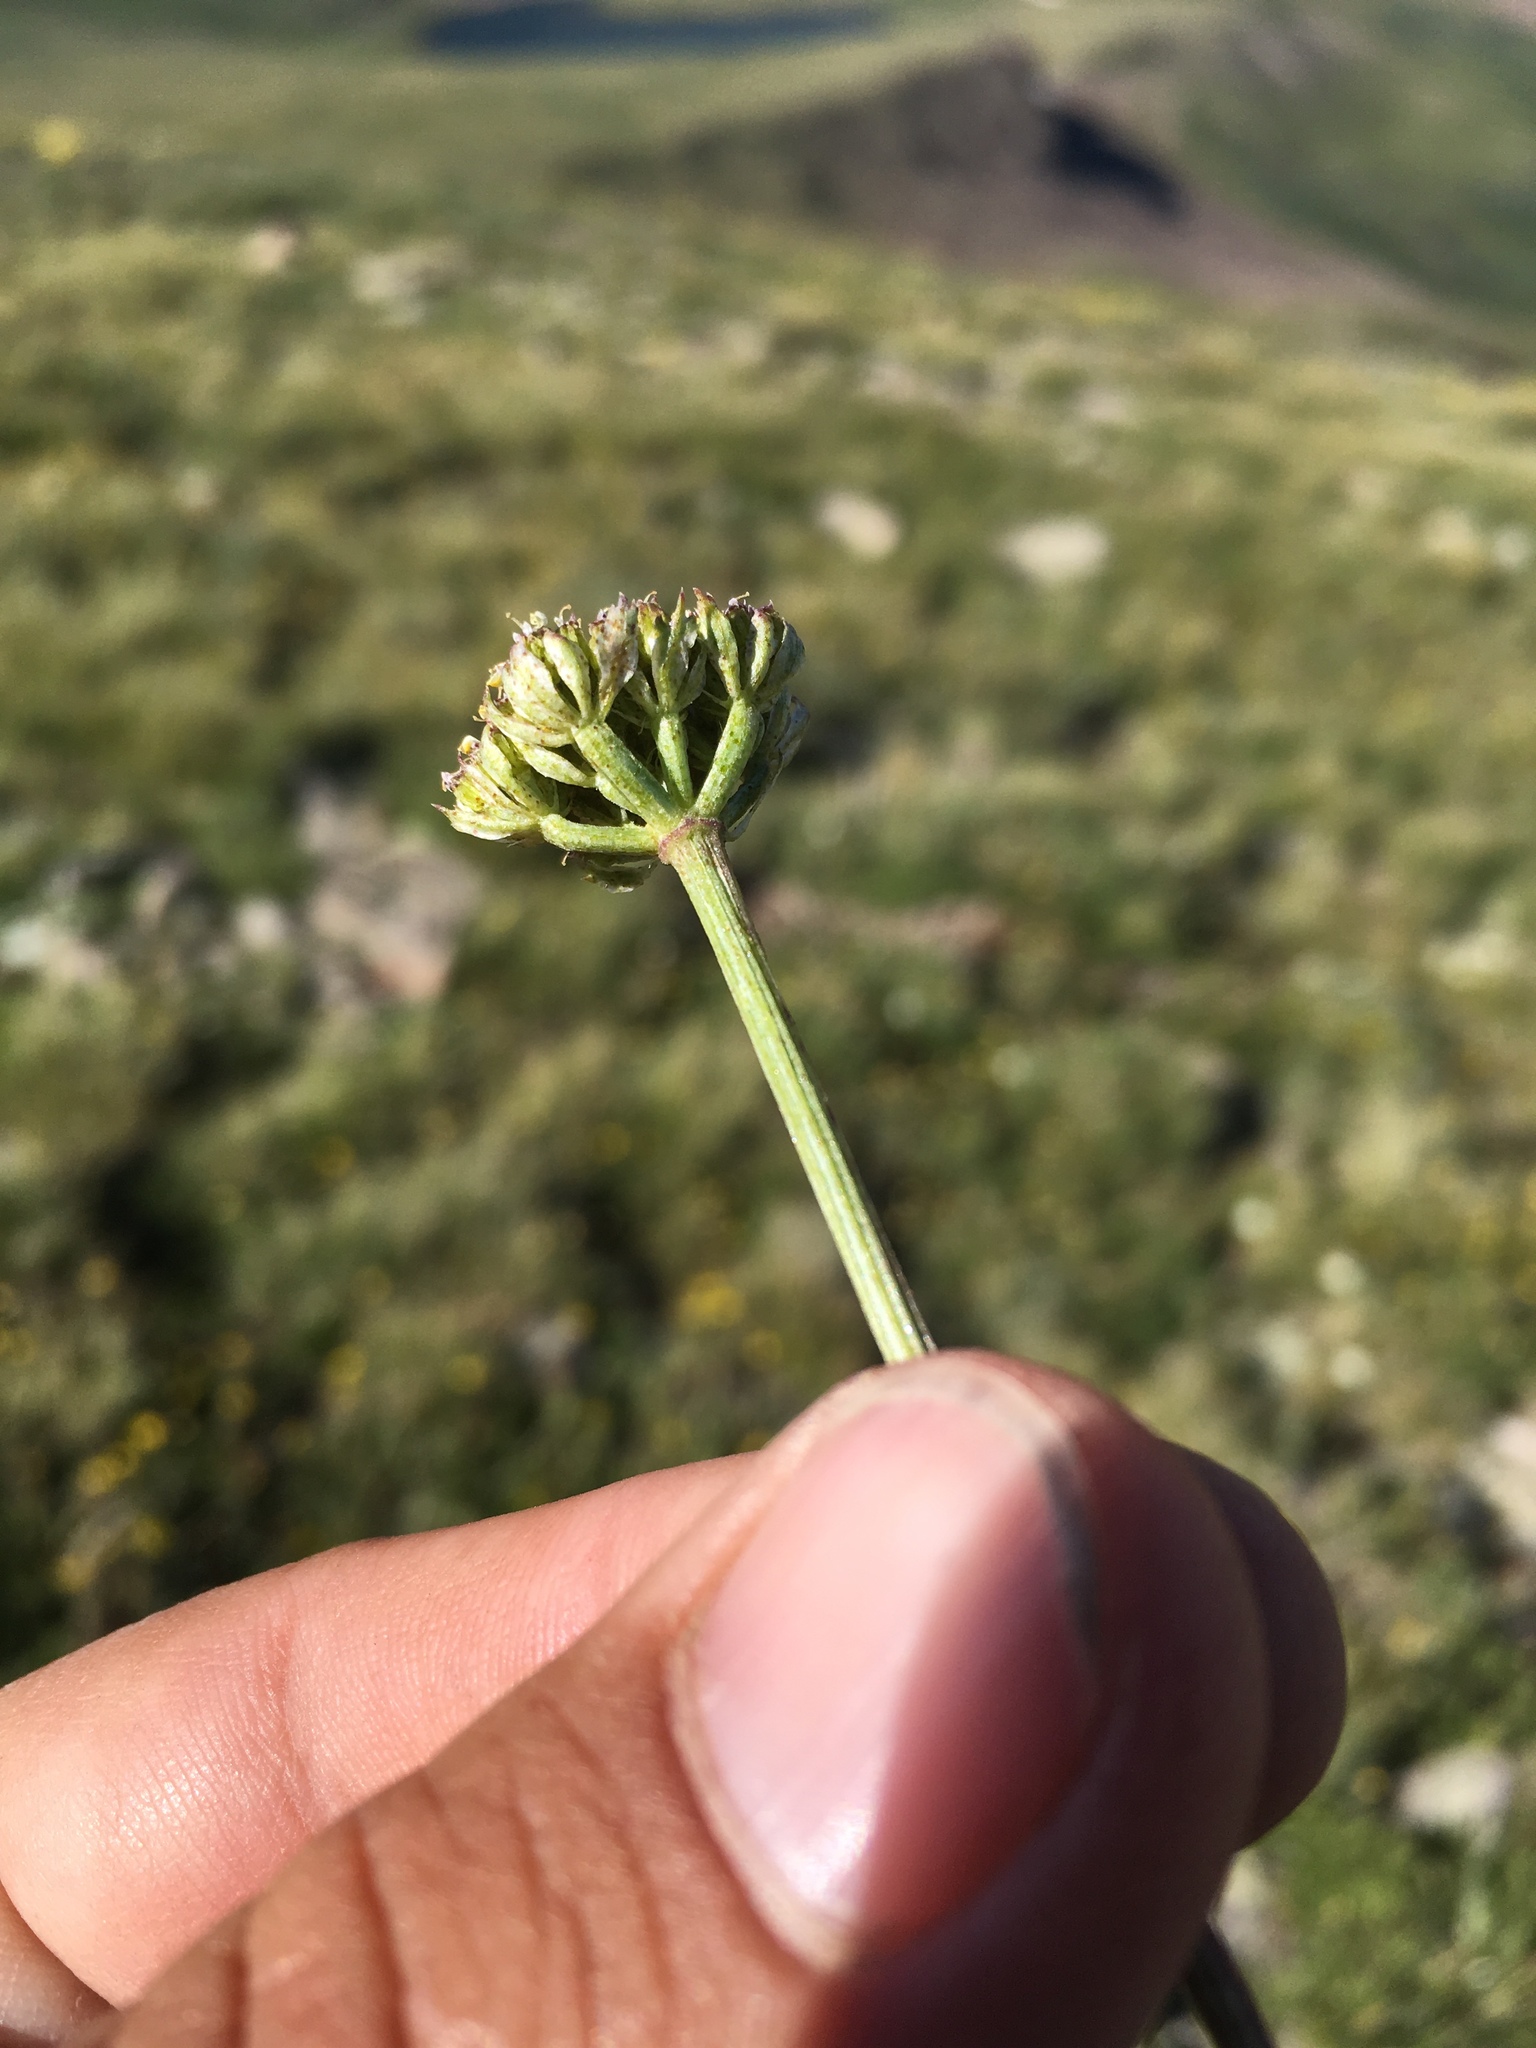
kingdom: Plantae
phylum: Tracheophyta
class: Magnoliopsida
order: Apiales
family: Apiaceae
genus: Oreoxis
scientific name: Oreoxis bakeri
